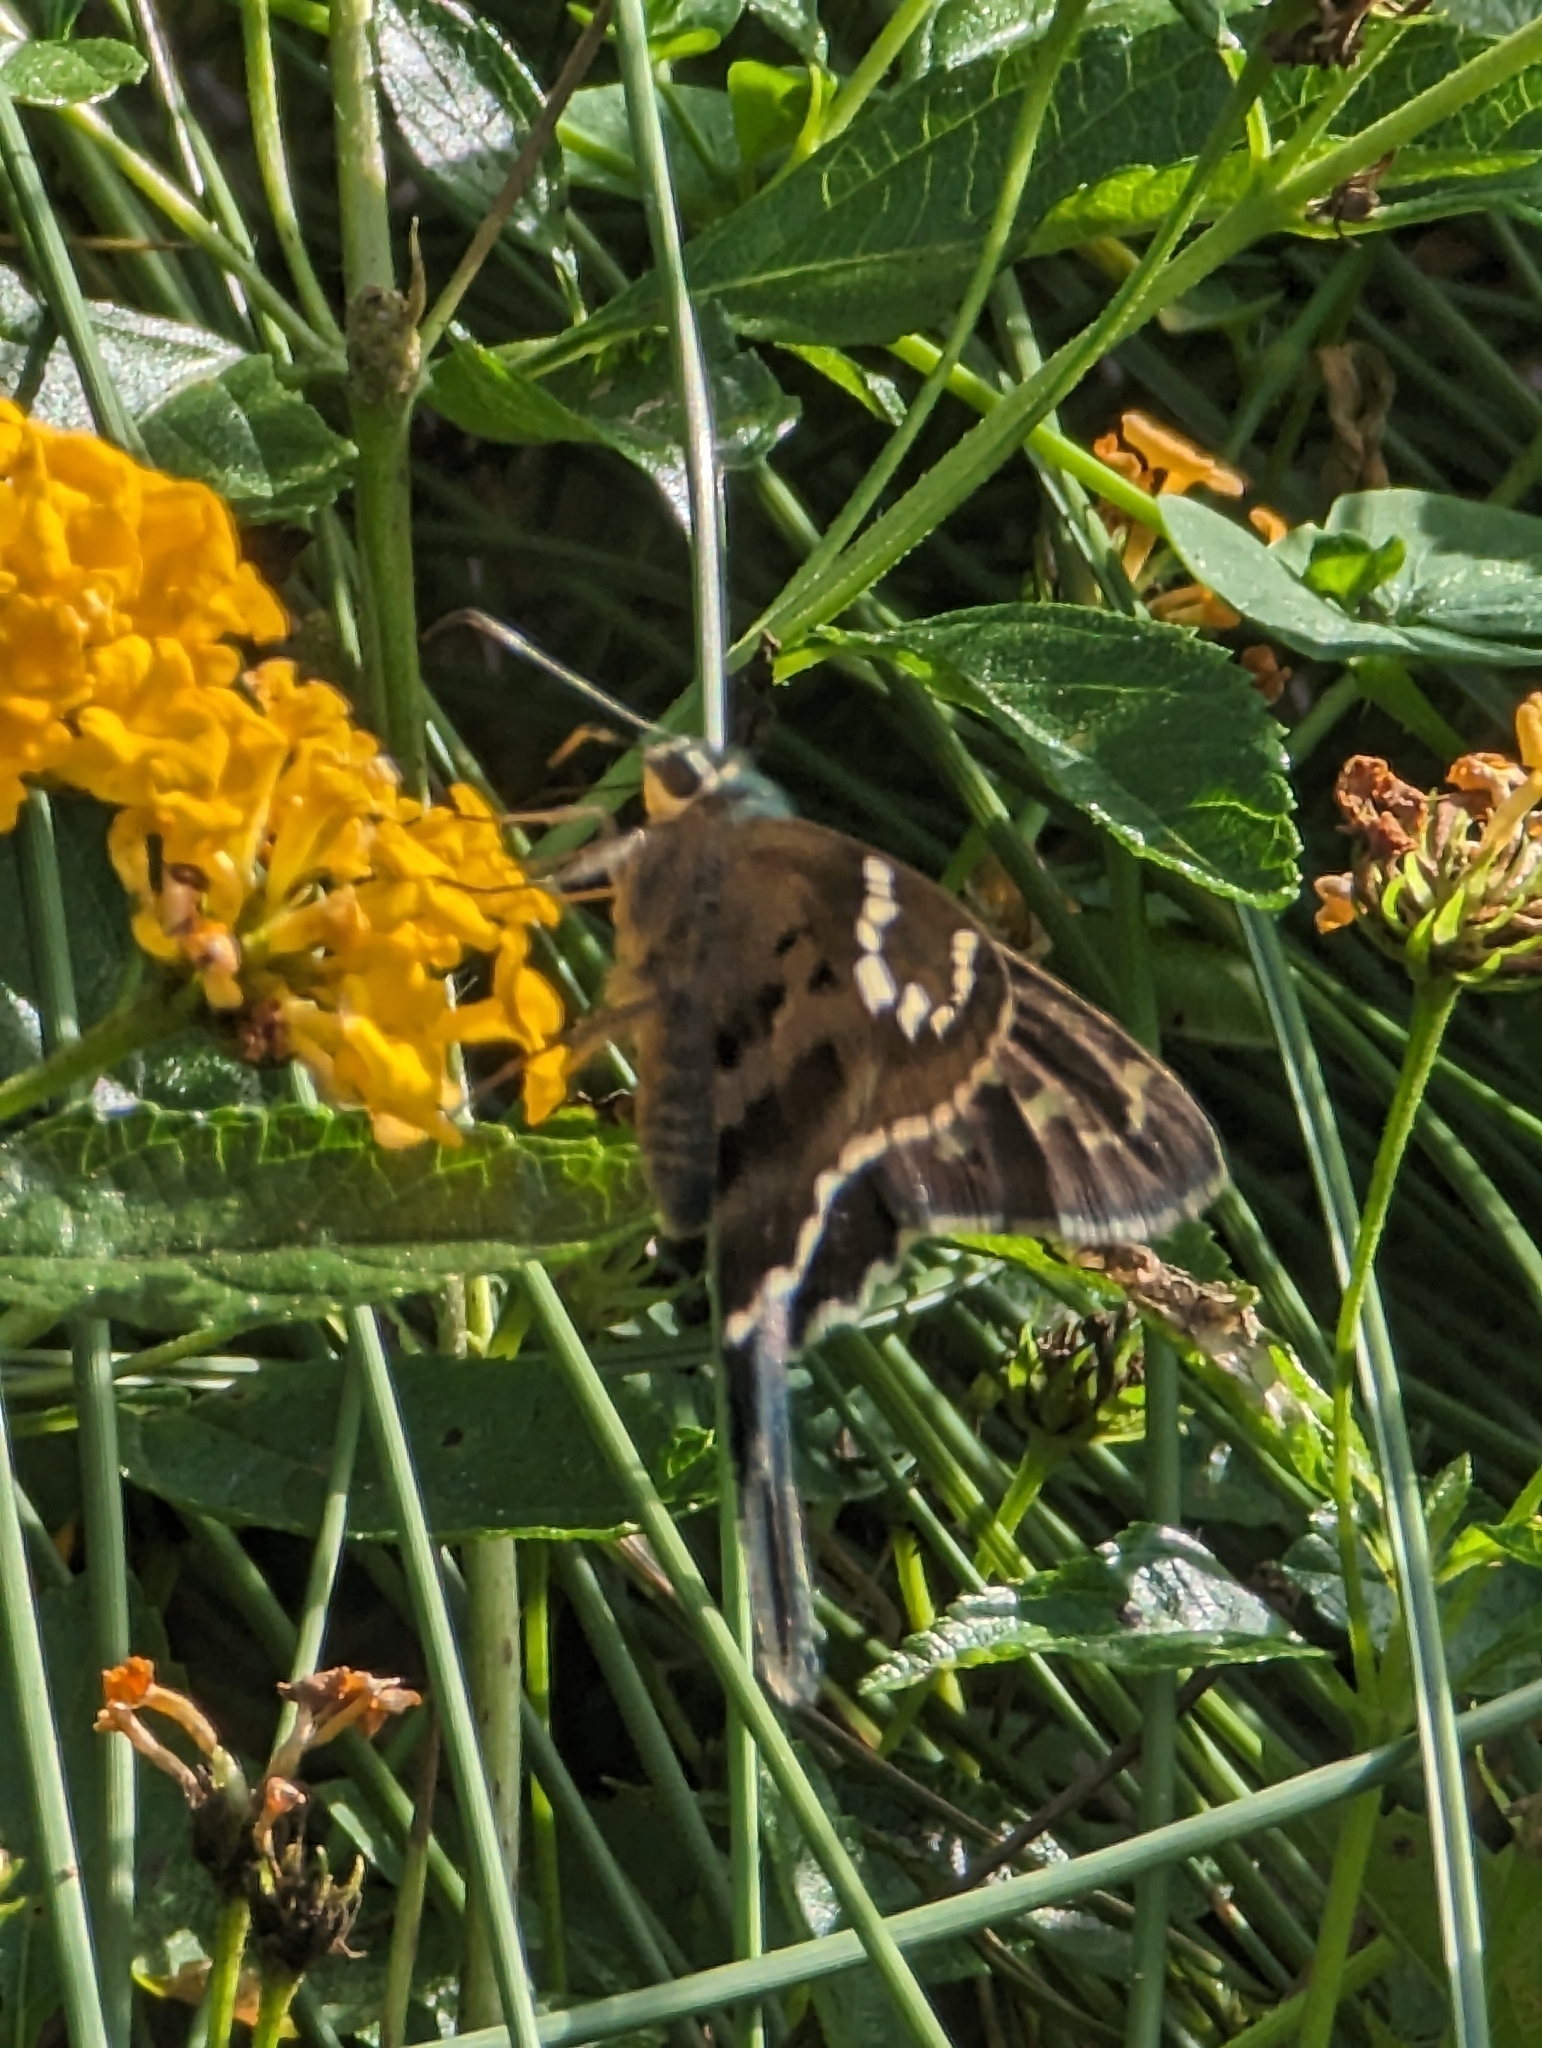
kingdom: Animalia
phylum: Arthropoda
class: Insecta
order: Lepidoptera
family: Hesperiidae
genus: Urbanus
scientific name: Urbanus proteus
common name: Long-tailed skipper
